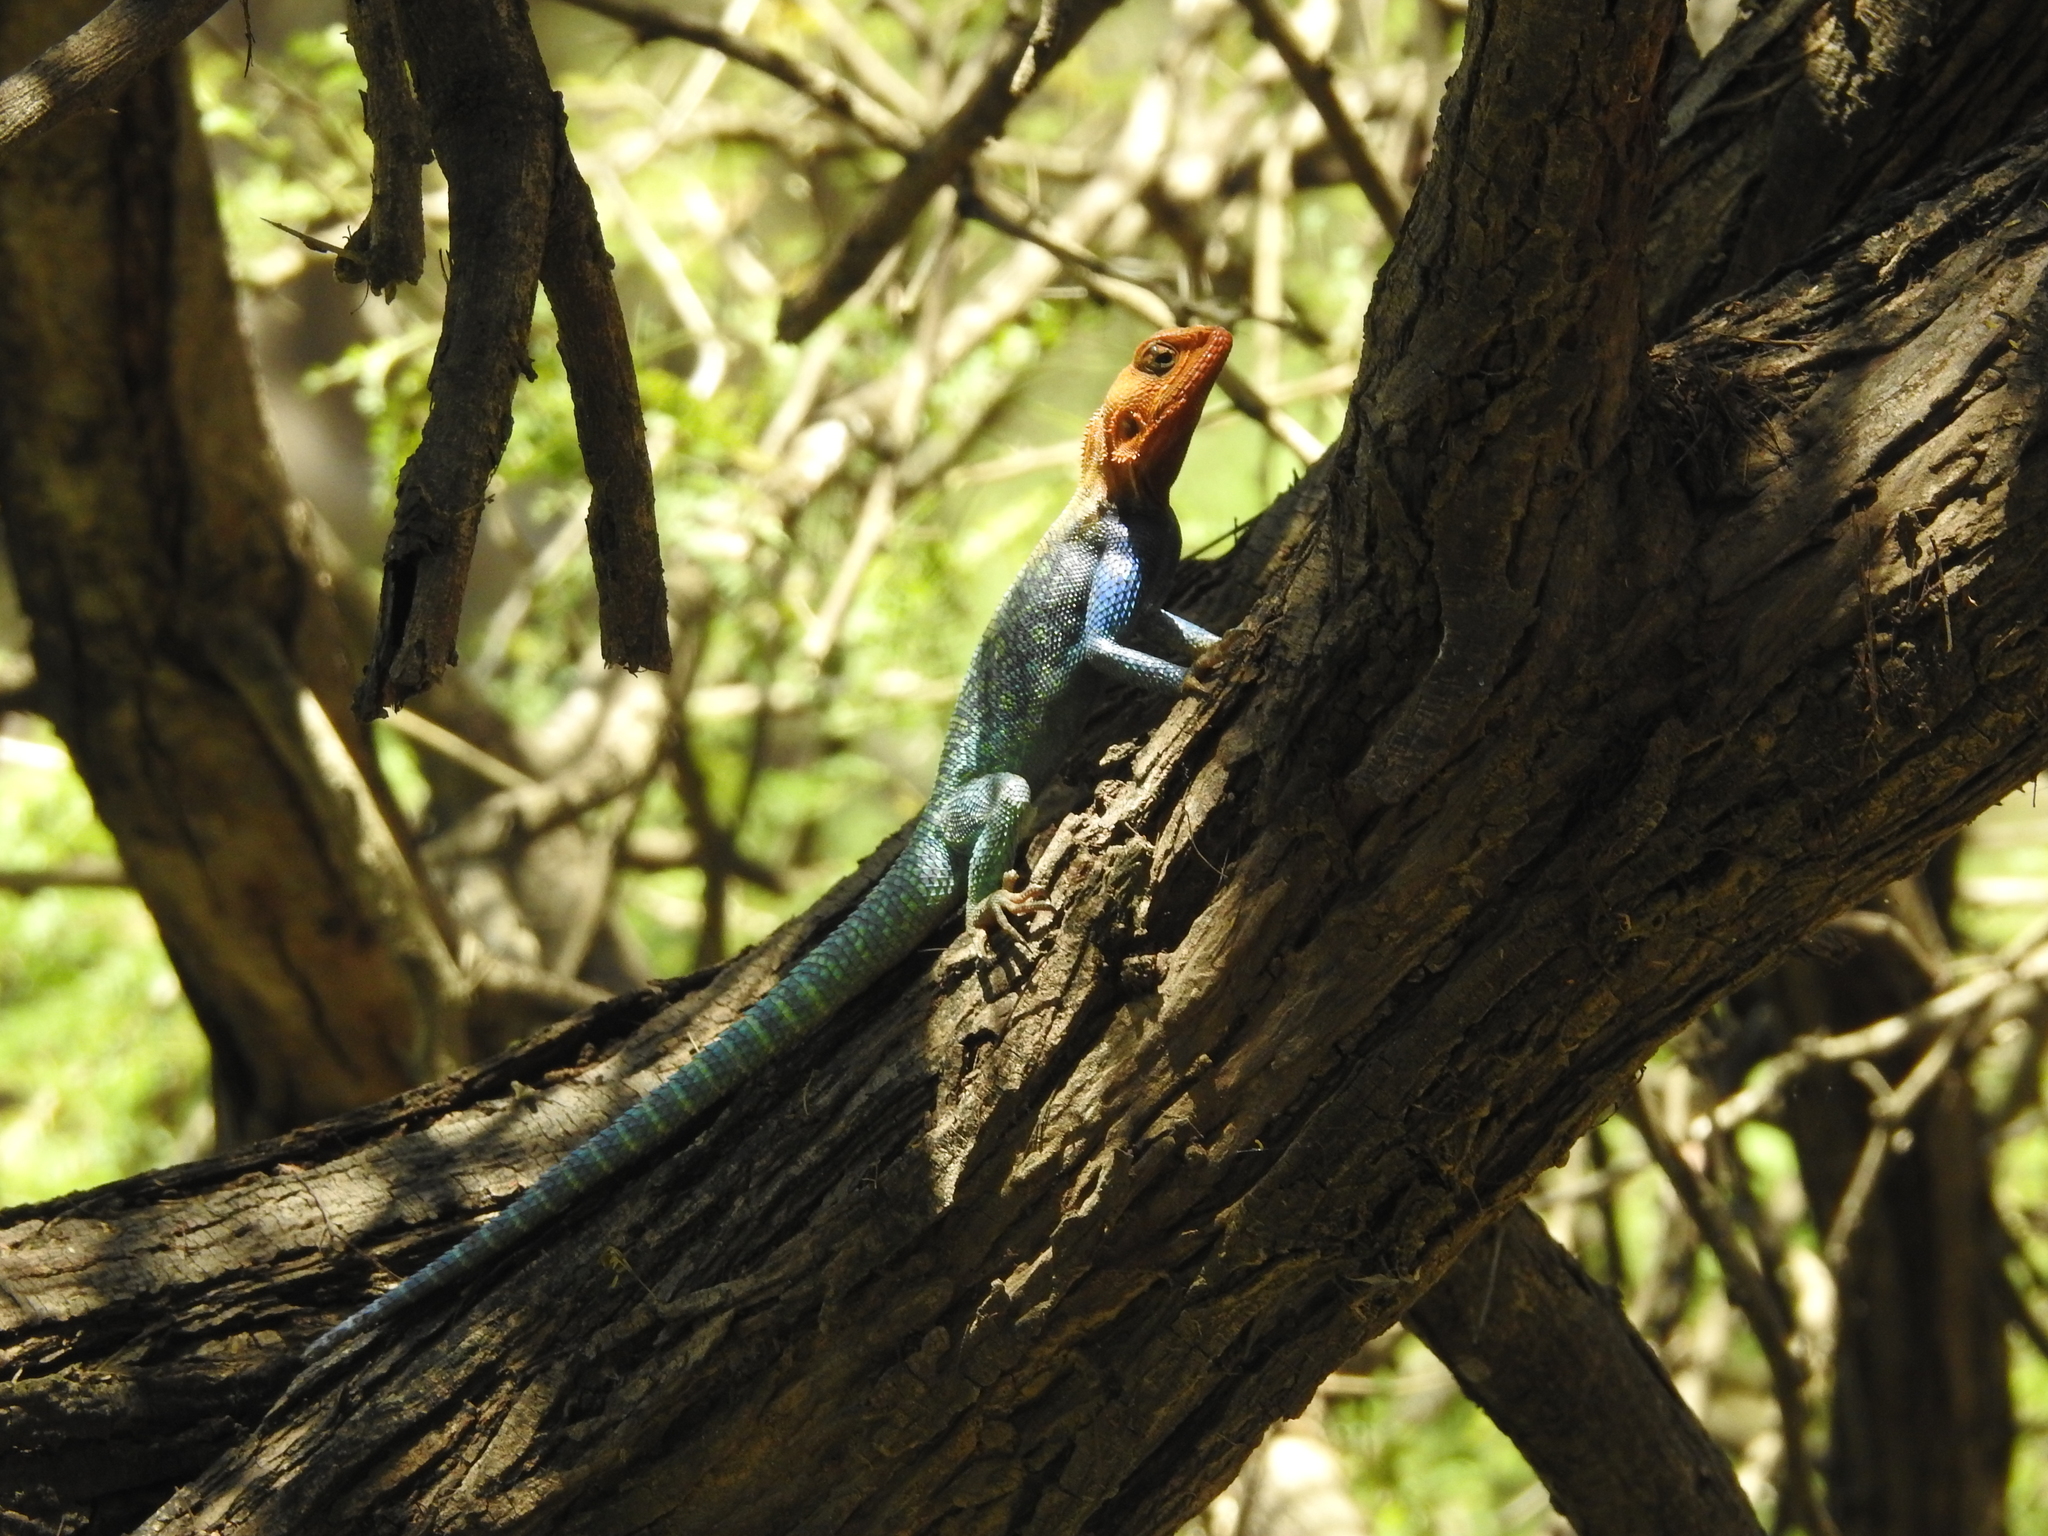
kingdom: Animalia
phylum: Chordata
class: Squamata
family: Agamidae
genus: Agama
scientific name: Agama lionotus
